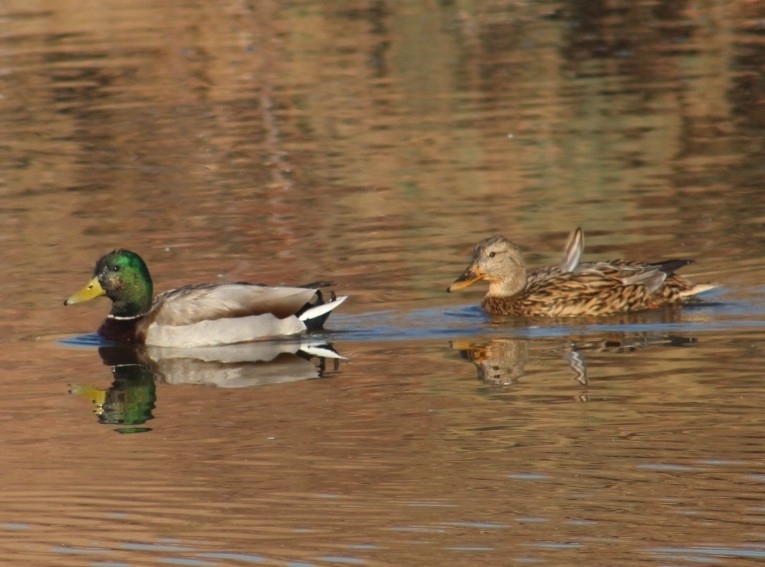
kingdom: Animalia
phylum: Chordata
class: Aves
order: Anseriformes
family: Anatidae
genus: Anas
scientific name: Anas platyrhynchos
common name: Mallard
